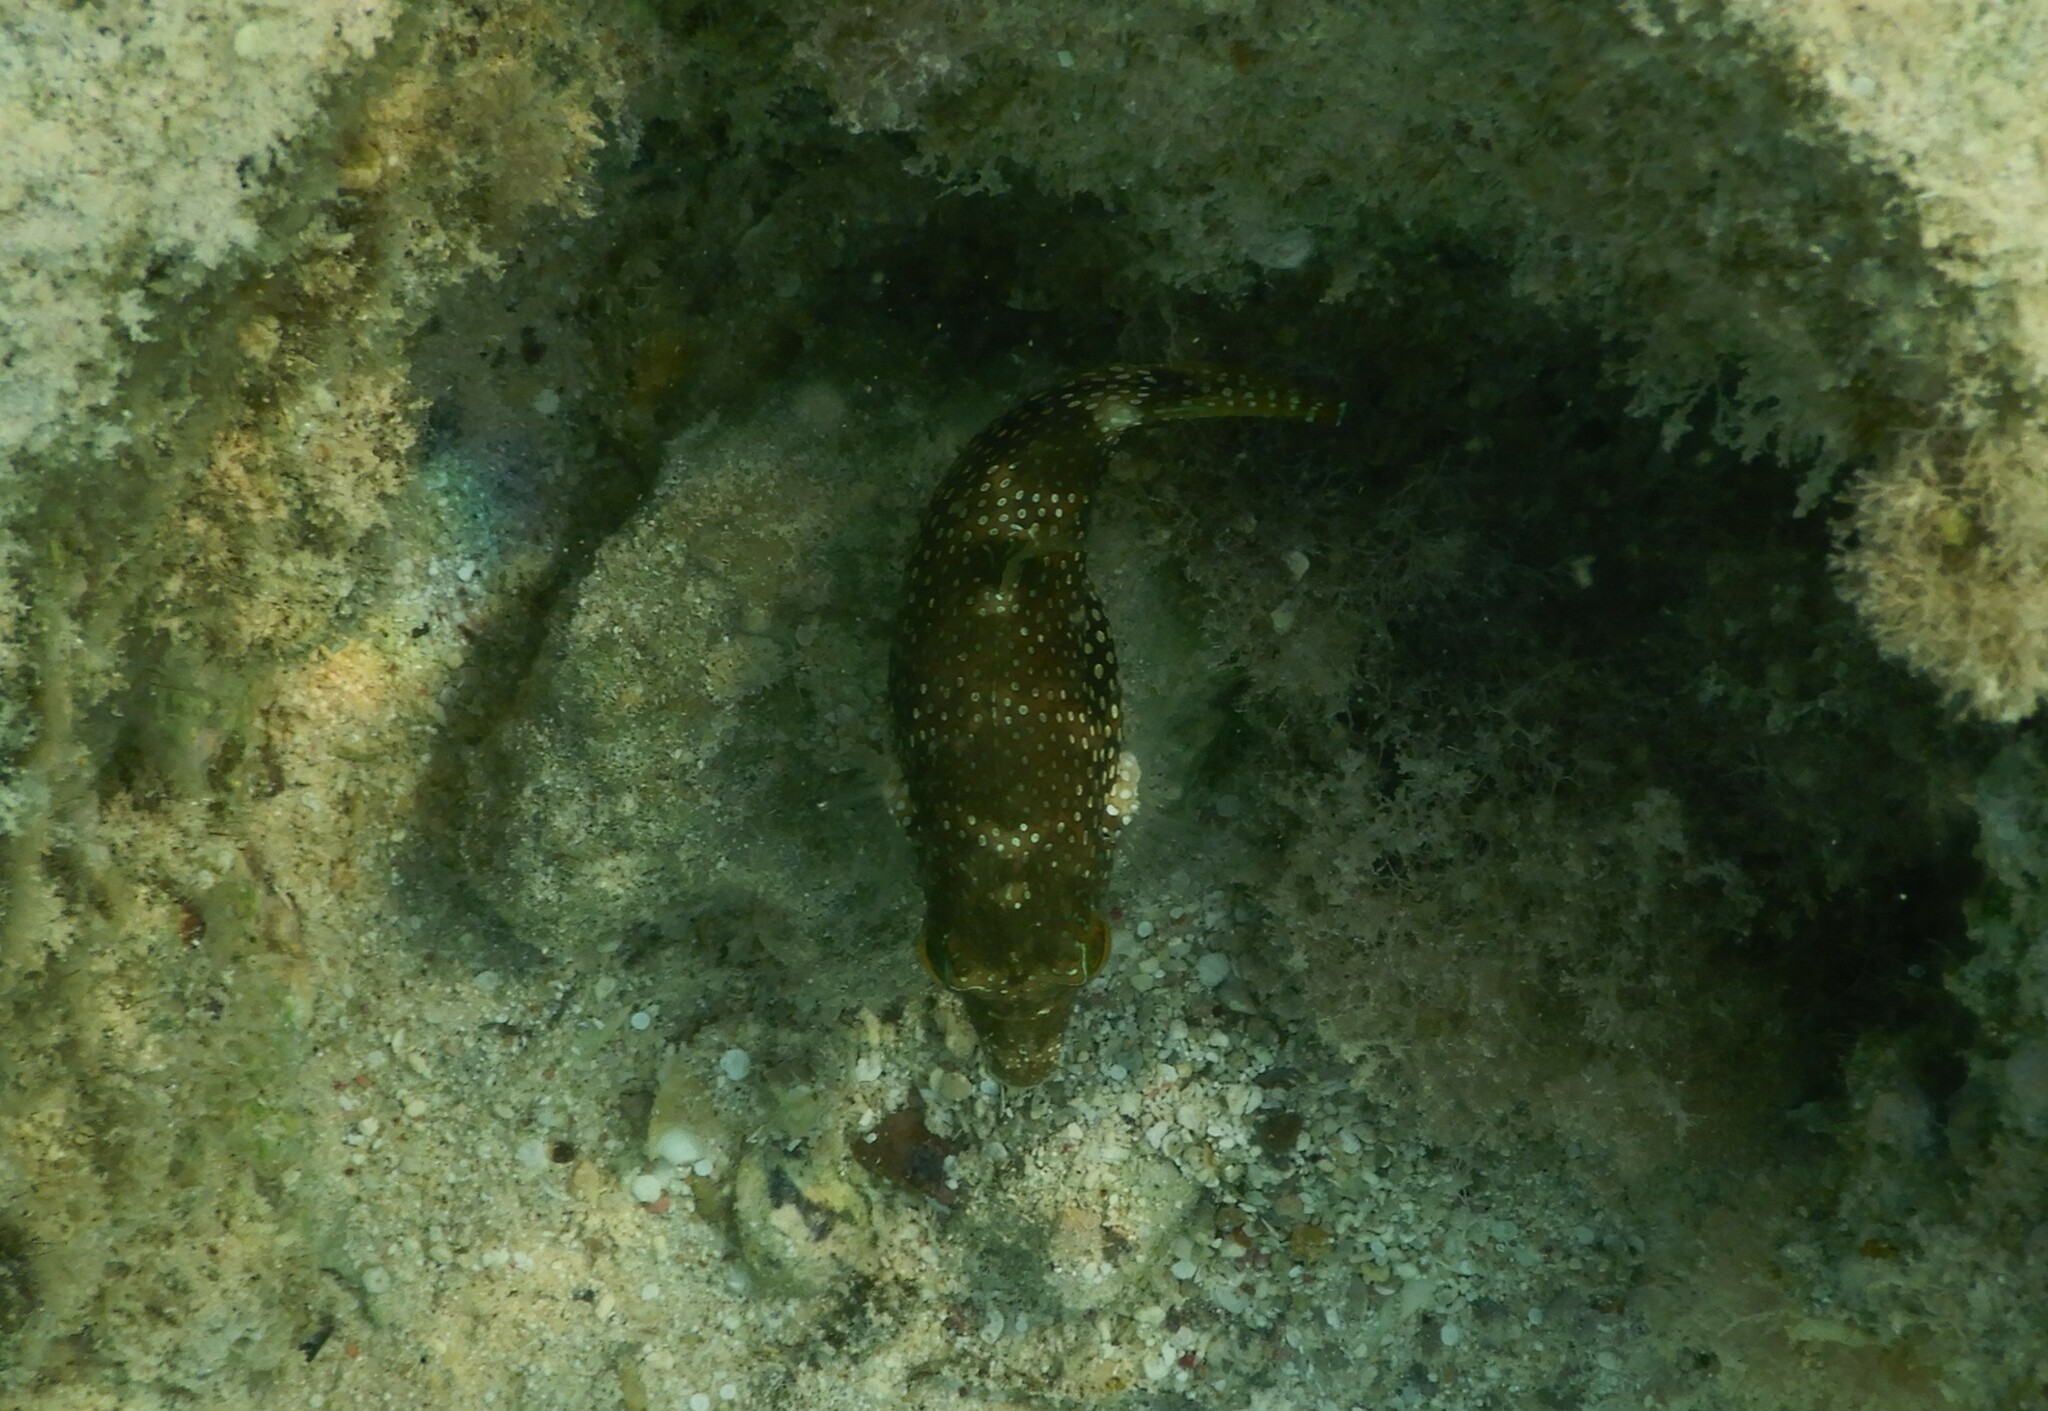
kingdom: Animalia
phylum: Chordata
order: Tetraodontiformes
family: Tetraodontidae
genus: Canthigaster
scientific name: Canthigaster margaritata
